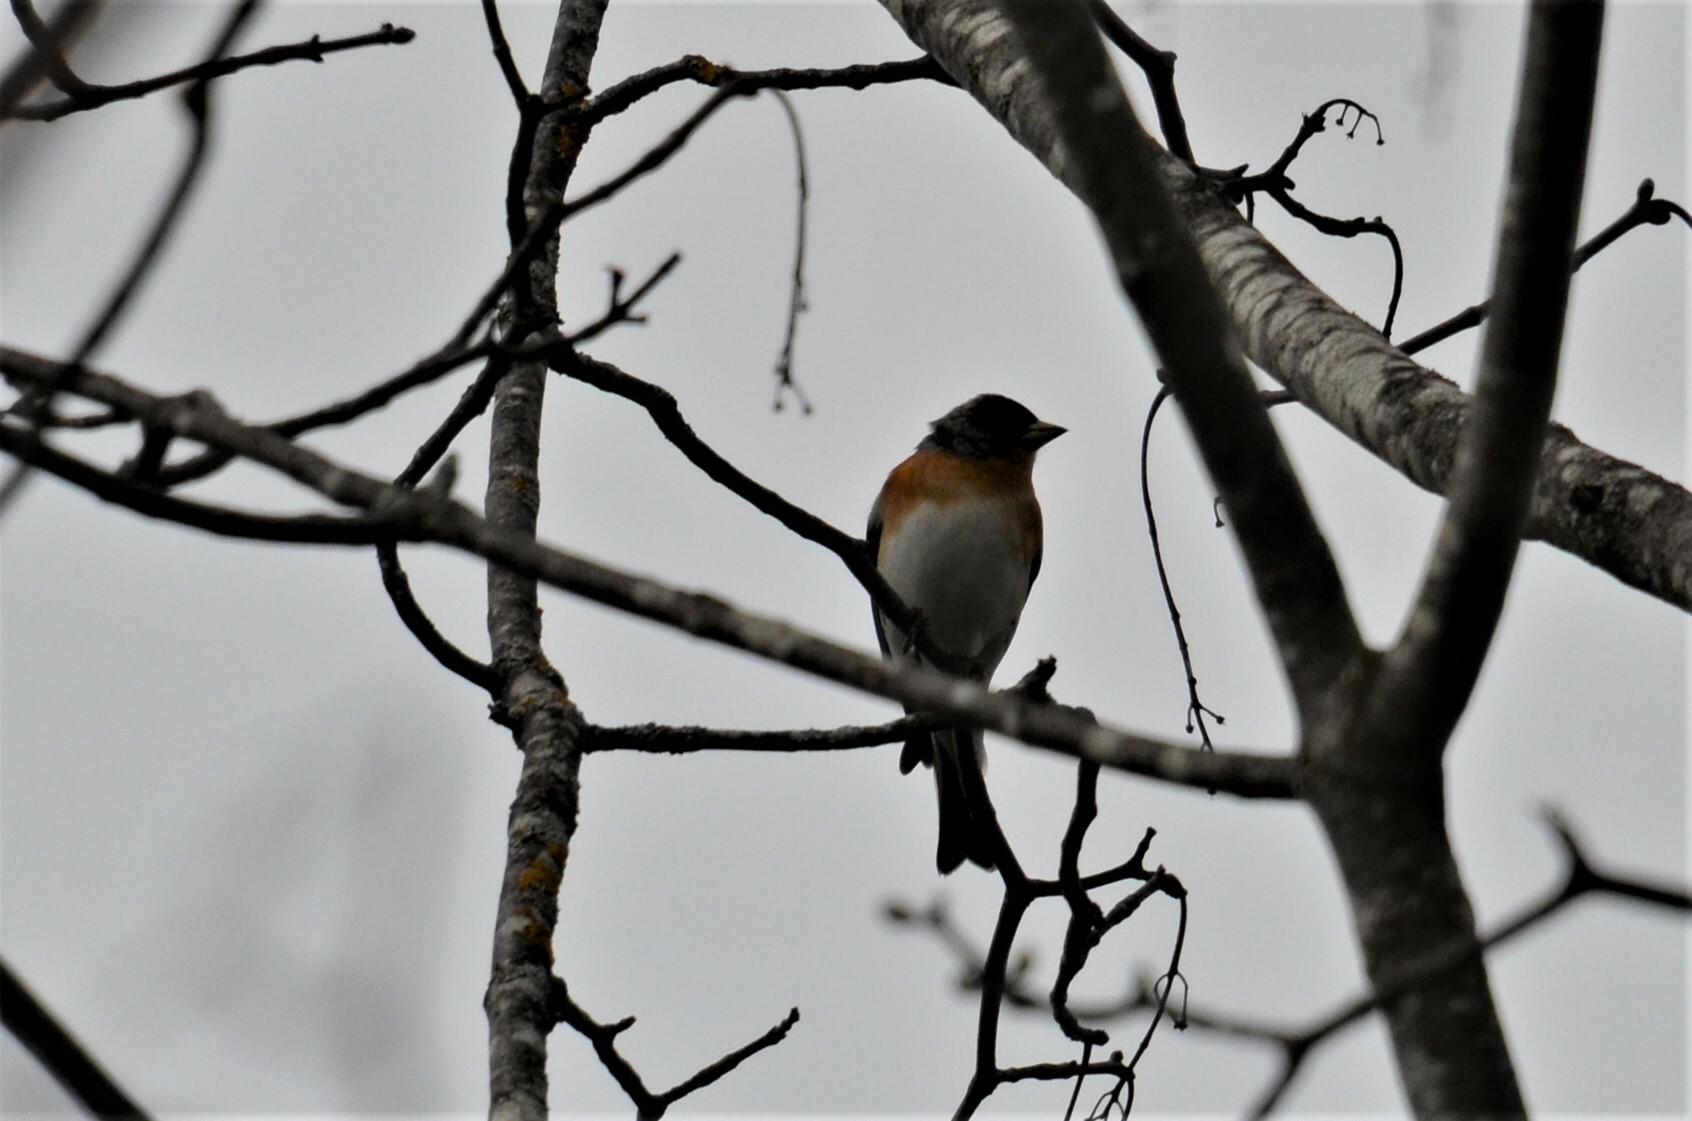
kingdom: Animalia
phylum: Chordata
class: Aves
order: Passeriformes
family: Fringillidae
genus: Fringilla
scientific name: Fringilla montifringilla
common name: Brambling
